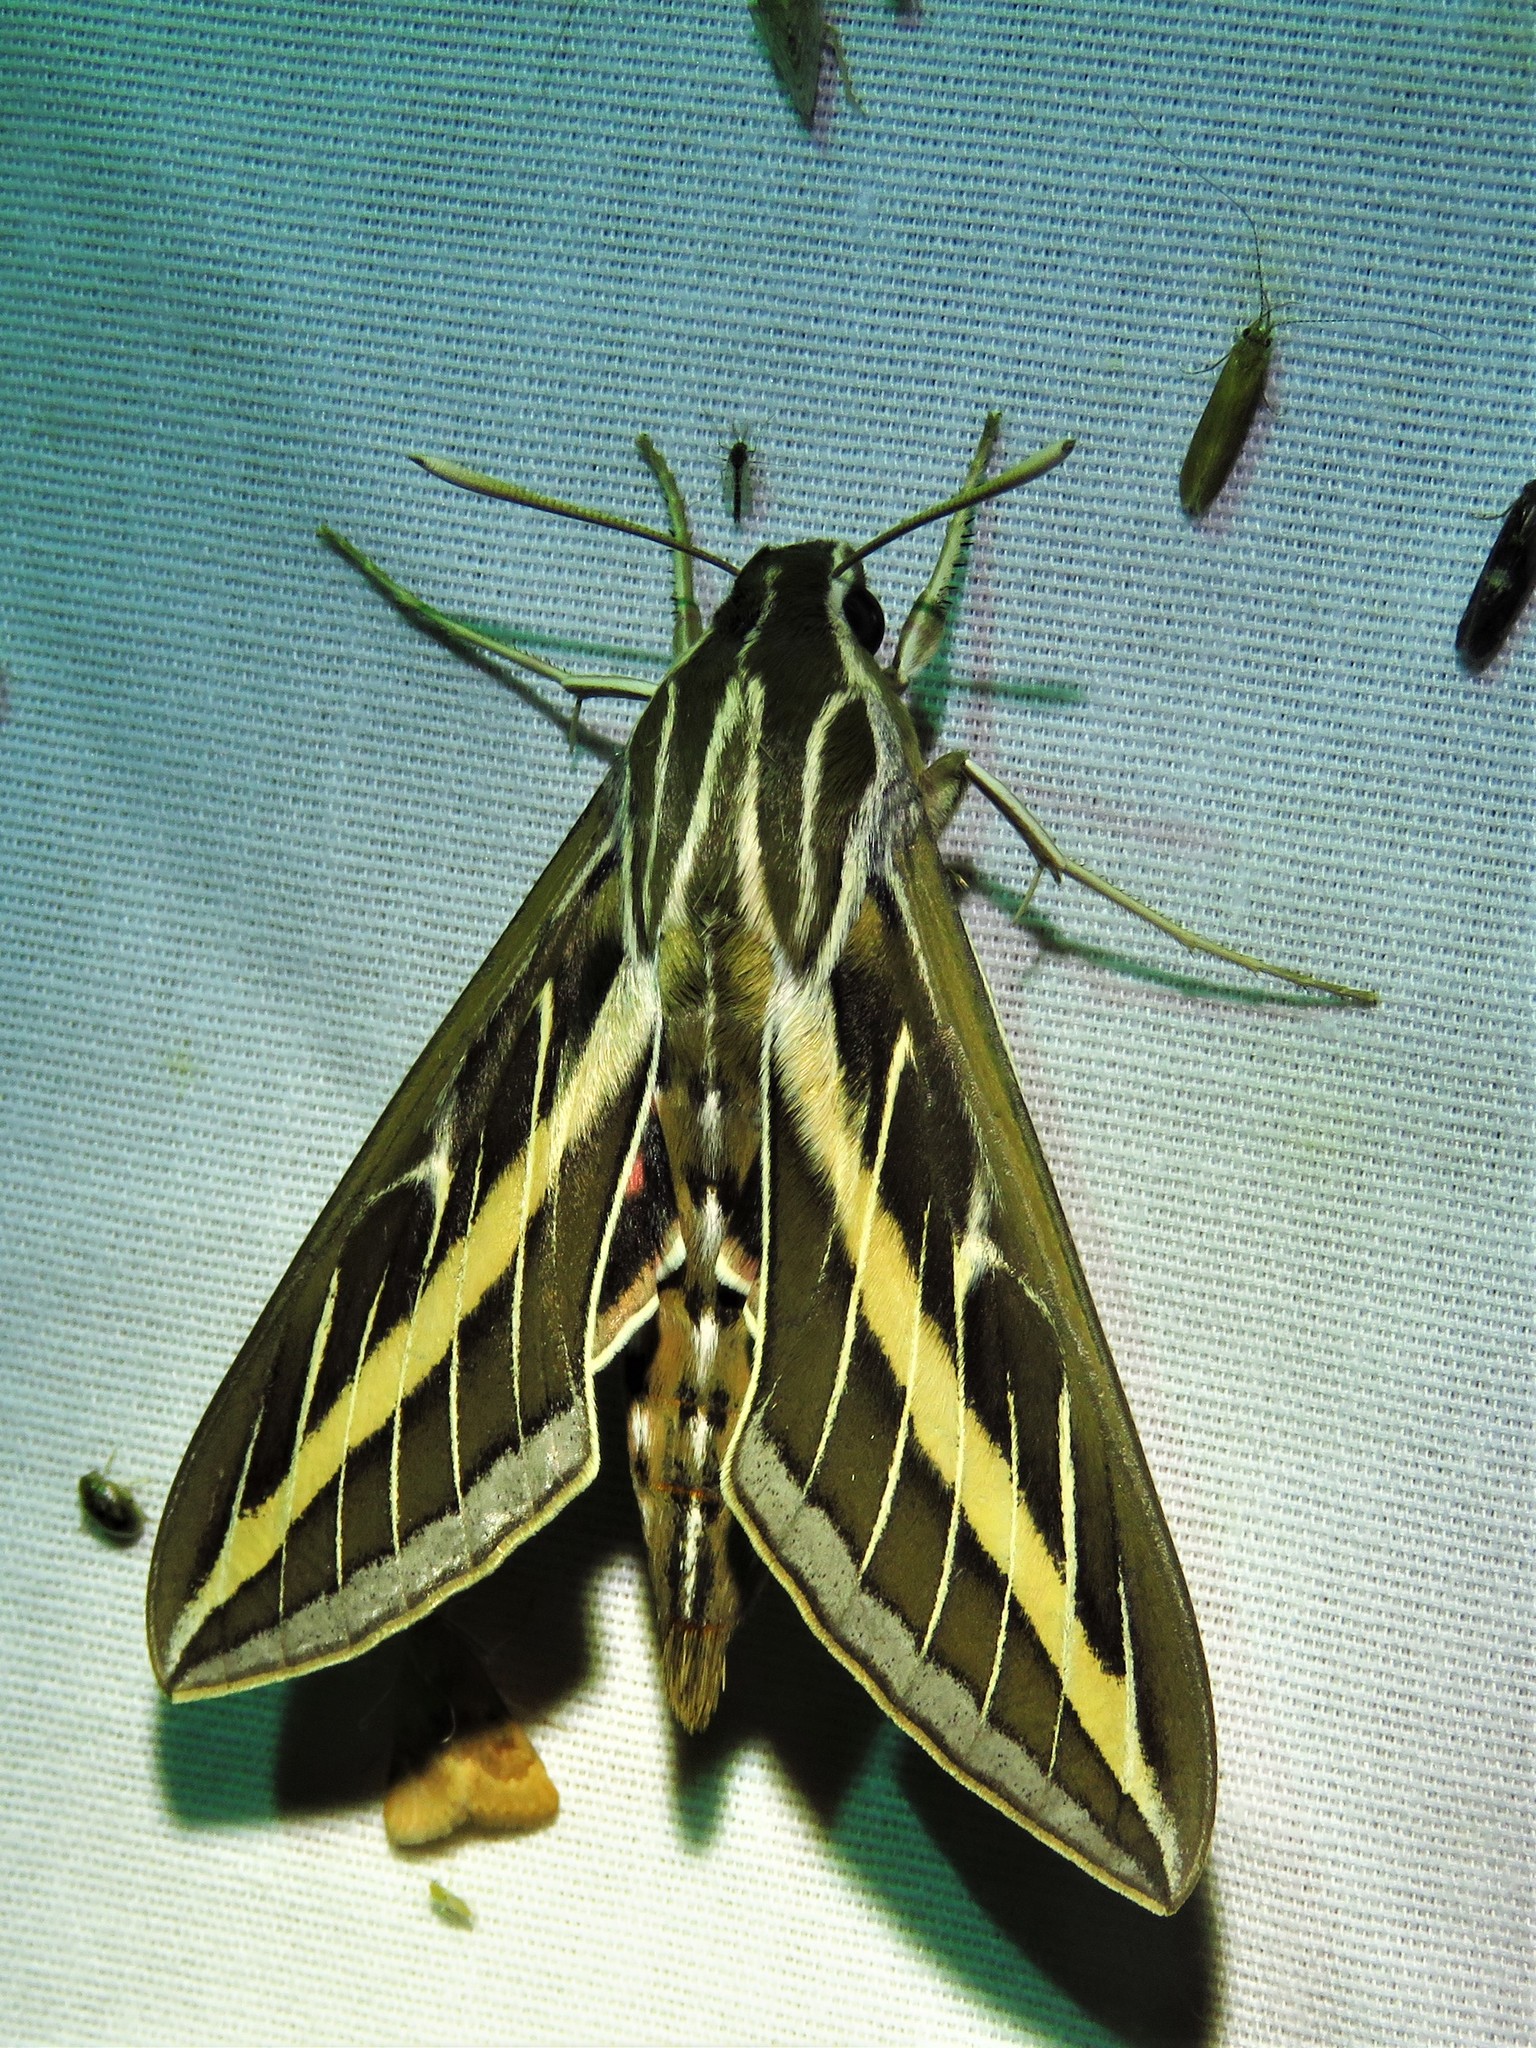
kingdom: Animalia
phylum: Arthropoda
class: Insecta
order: Lepidoptera
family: Sphingidae
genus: Hyles
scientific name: Hyles lineata
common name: White-lined sphinx
